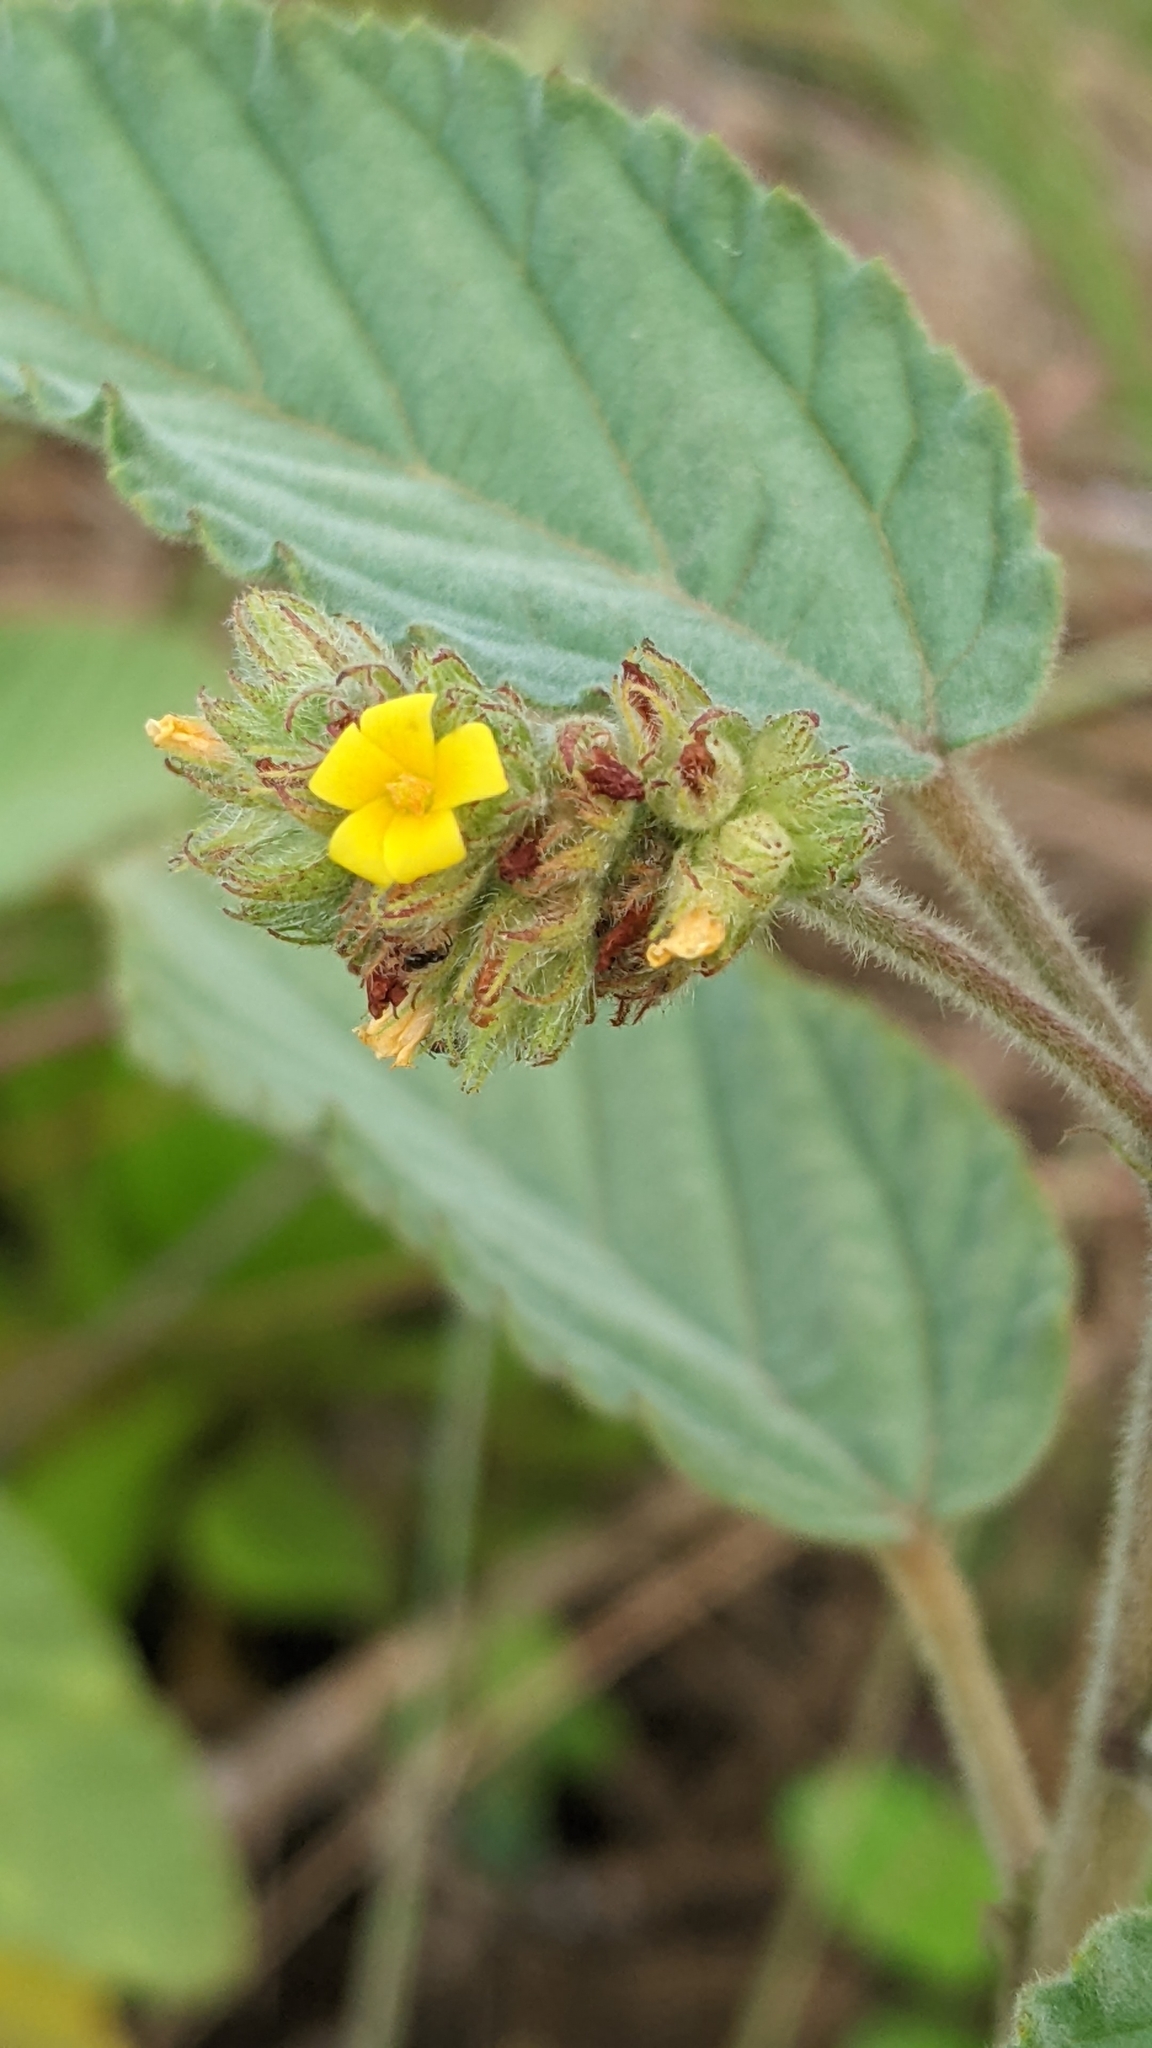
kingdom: Plantae
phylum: Tracheophyta
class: Magnoliopsida
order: Malvales
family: Malvaceae
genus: Waltheria
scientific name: Waltheria indica
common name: Leather-coat
